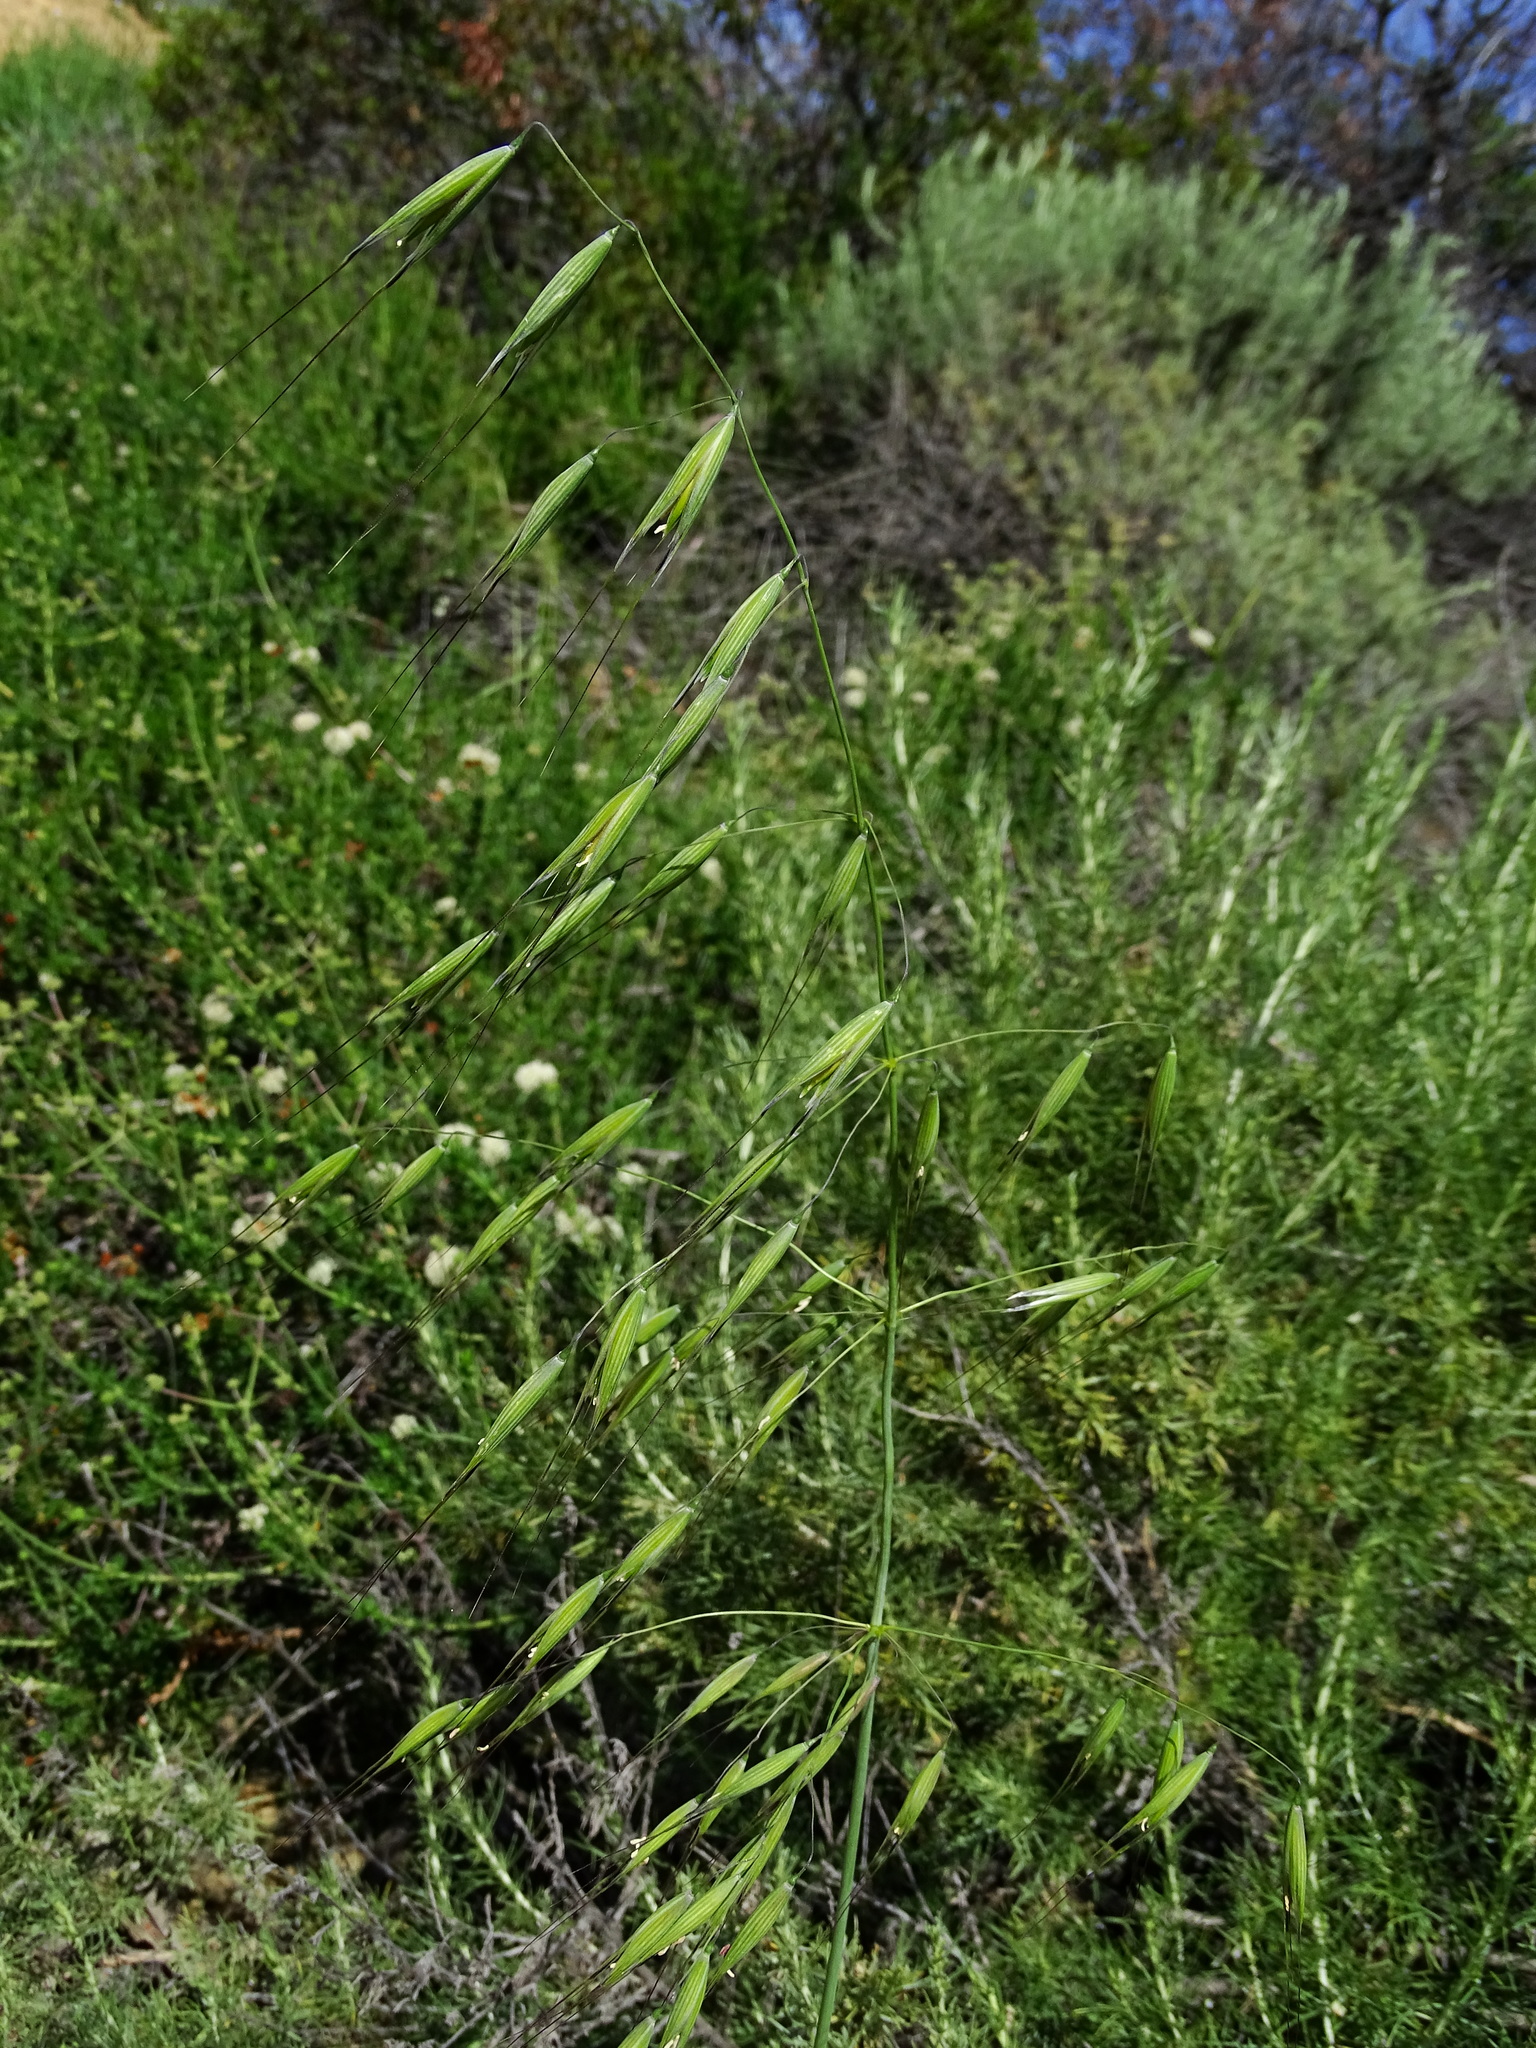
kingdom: Plantae
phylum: Tracheophyta
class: Liliopsida
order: Poales
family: Poaceae
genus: Avena
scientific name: Avena fatua
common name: Wild oat
